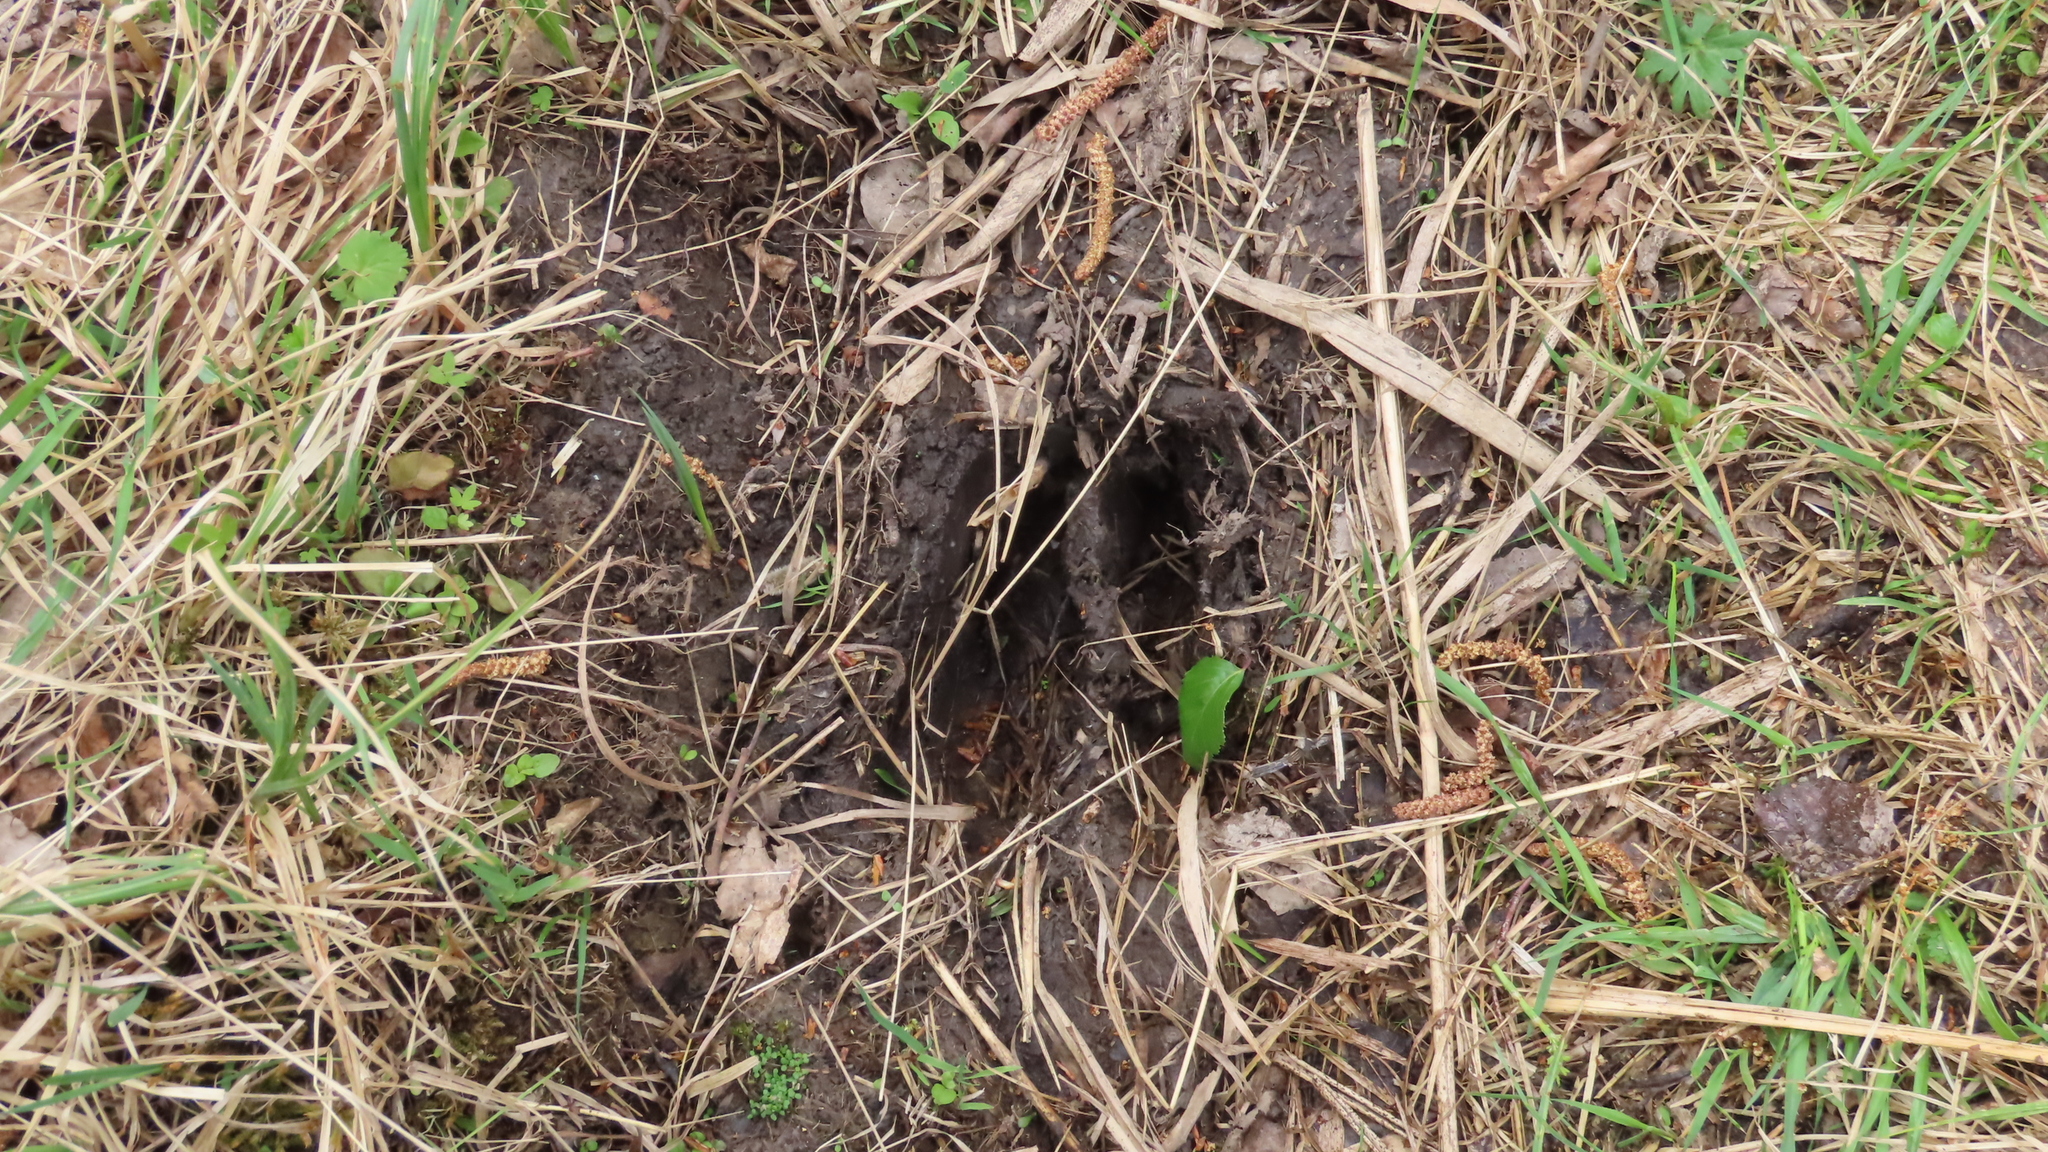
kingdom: Animalia
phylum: Chordata
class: Mammalia
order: Artiodactyla
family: Cervidae
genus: Alces
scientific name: Alces alces
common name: Moose
